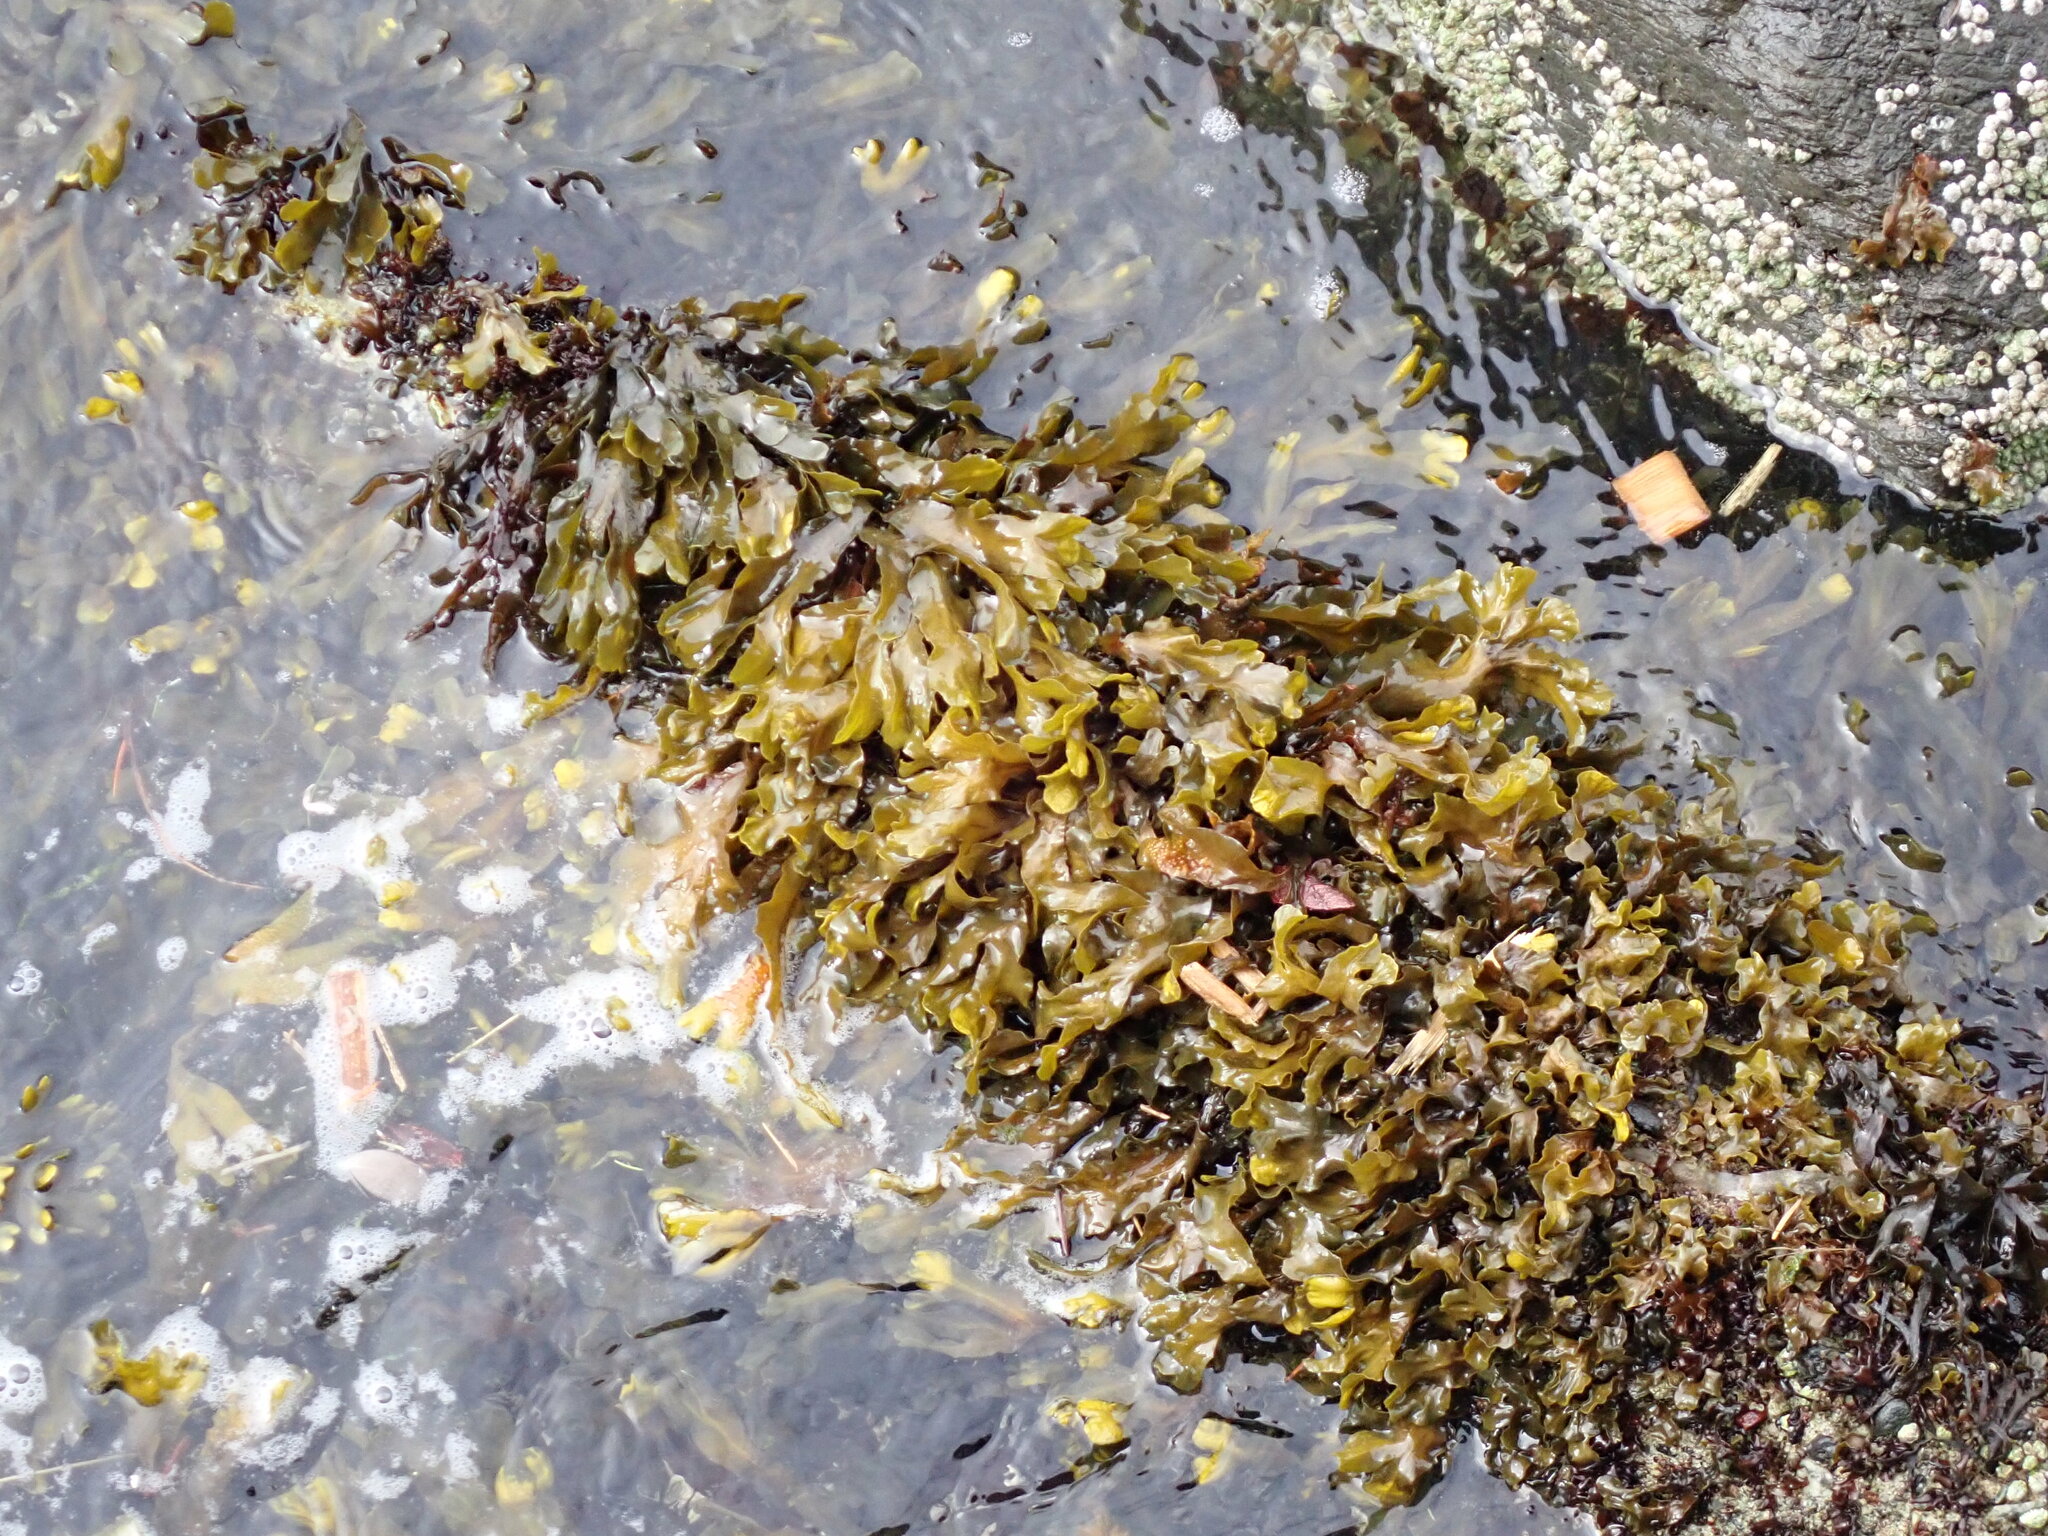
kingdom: Chromista
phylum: Ochrophyta
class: Phaeophyceae
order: Fucales
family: Fucaceae
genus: Fucus
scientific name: Fucus distichus
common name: Rockweed
